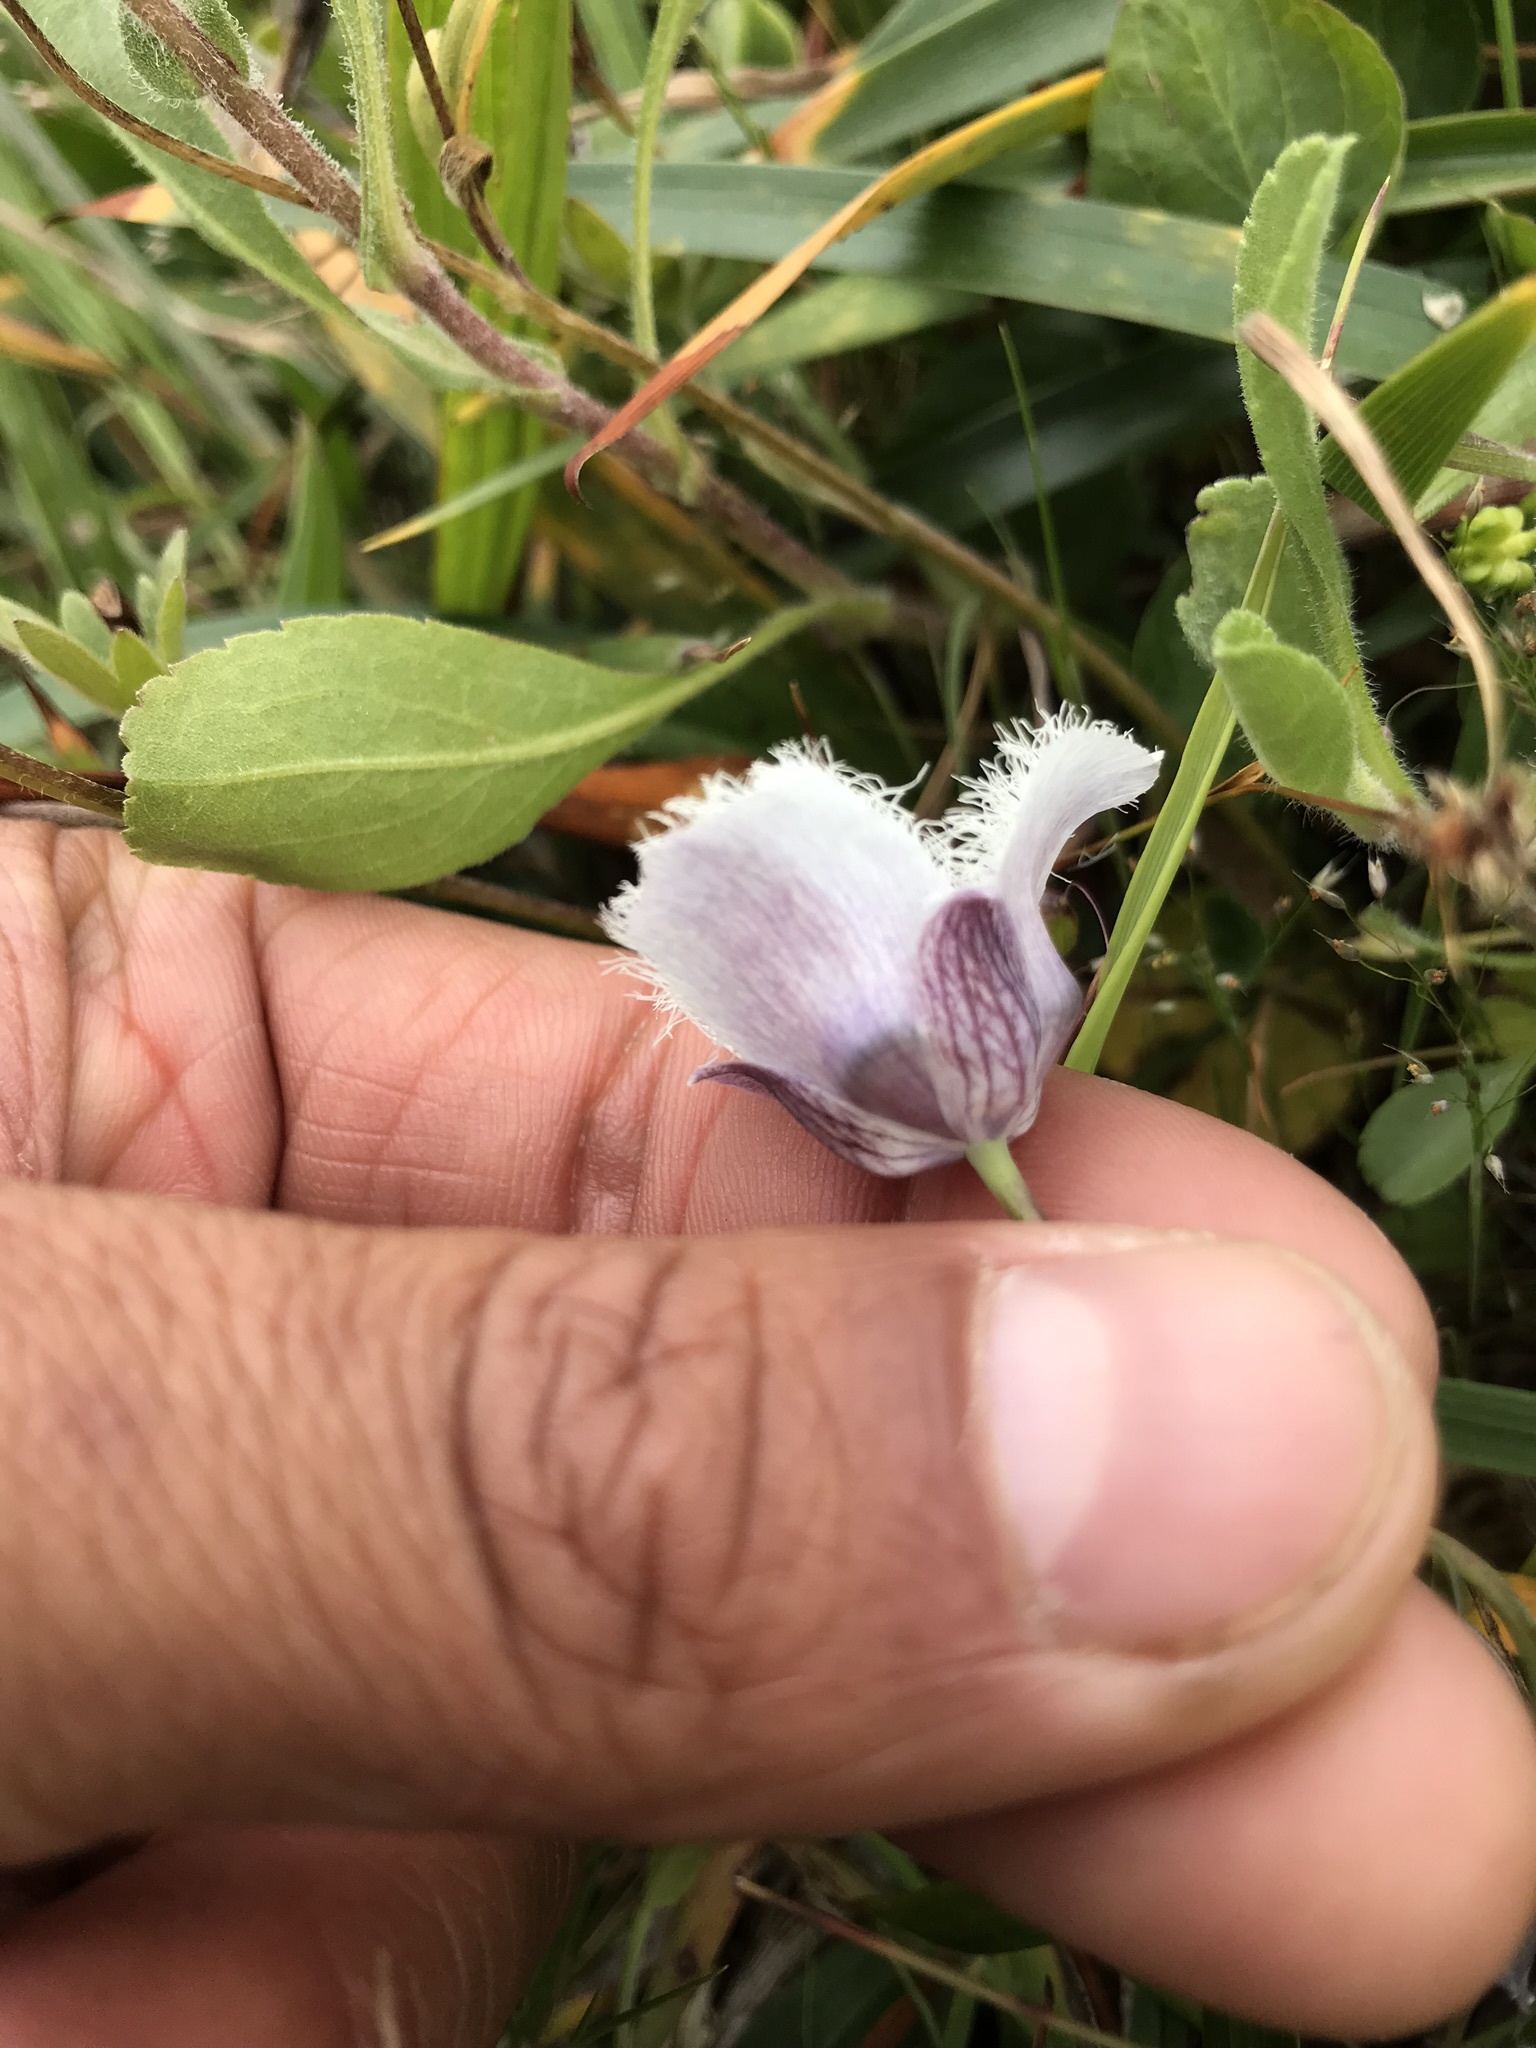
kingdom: Plantae
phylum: Tracheophyta
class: Liliopsida
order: Liliales
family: Liliaceae
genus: Calochortus
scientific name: Calochortus tolmiei
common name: Pussy-ears
